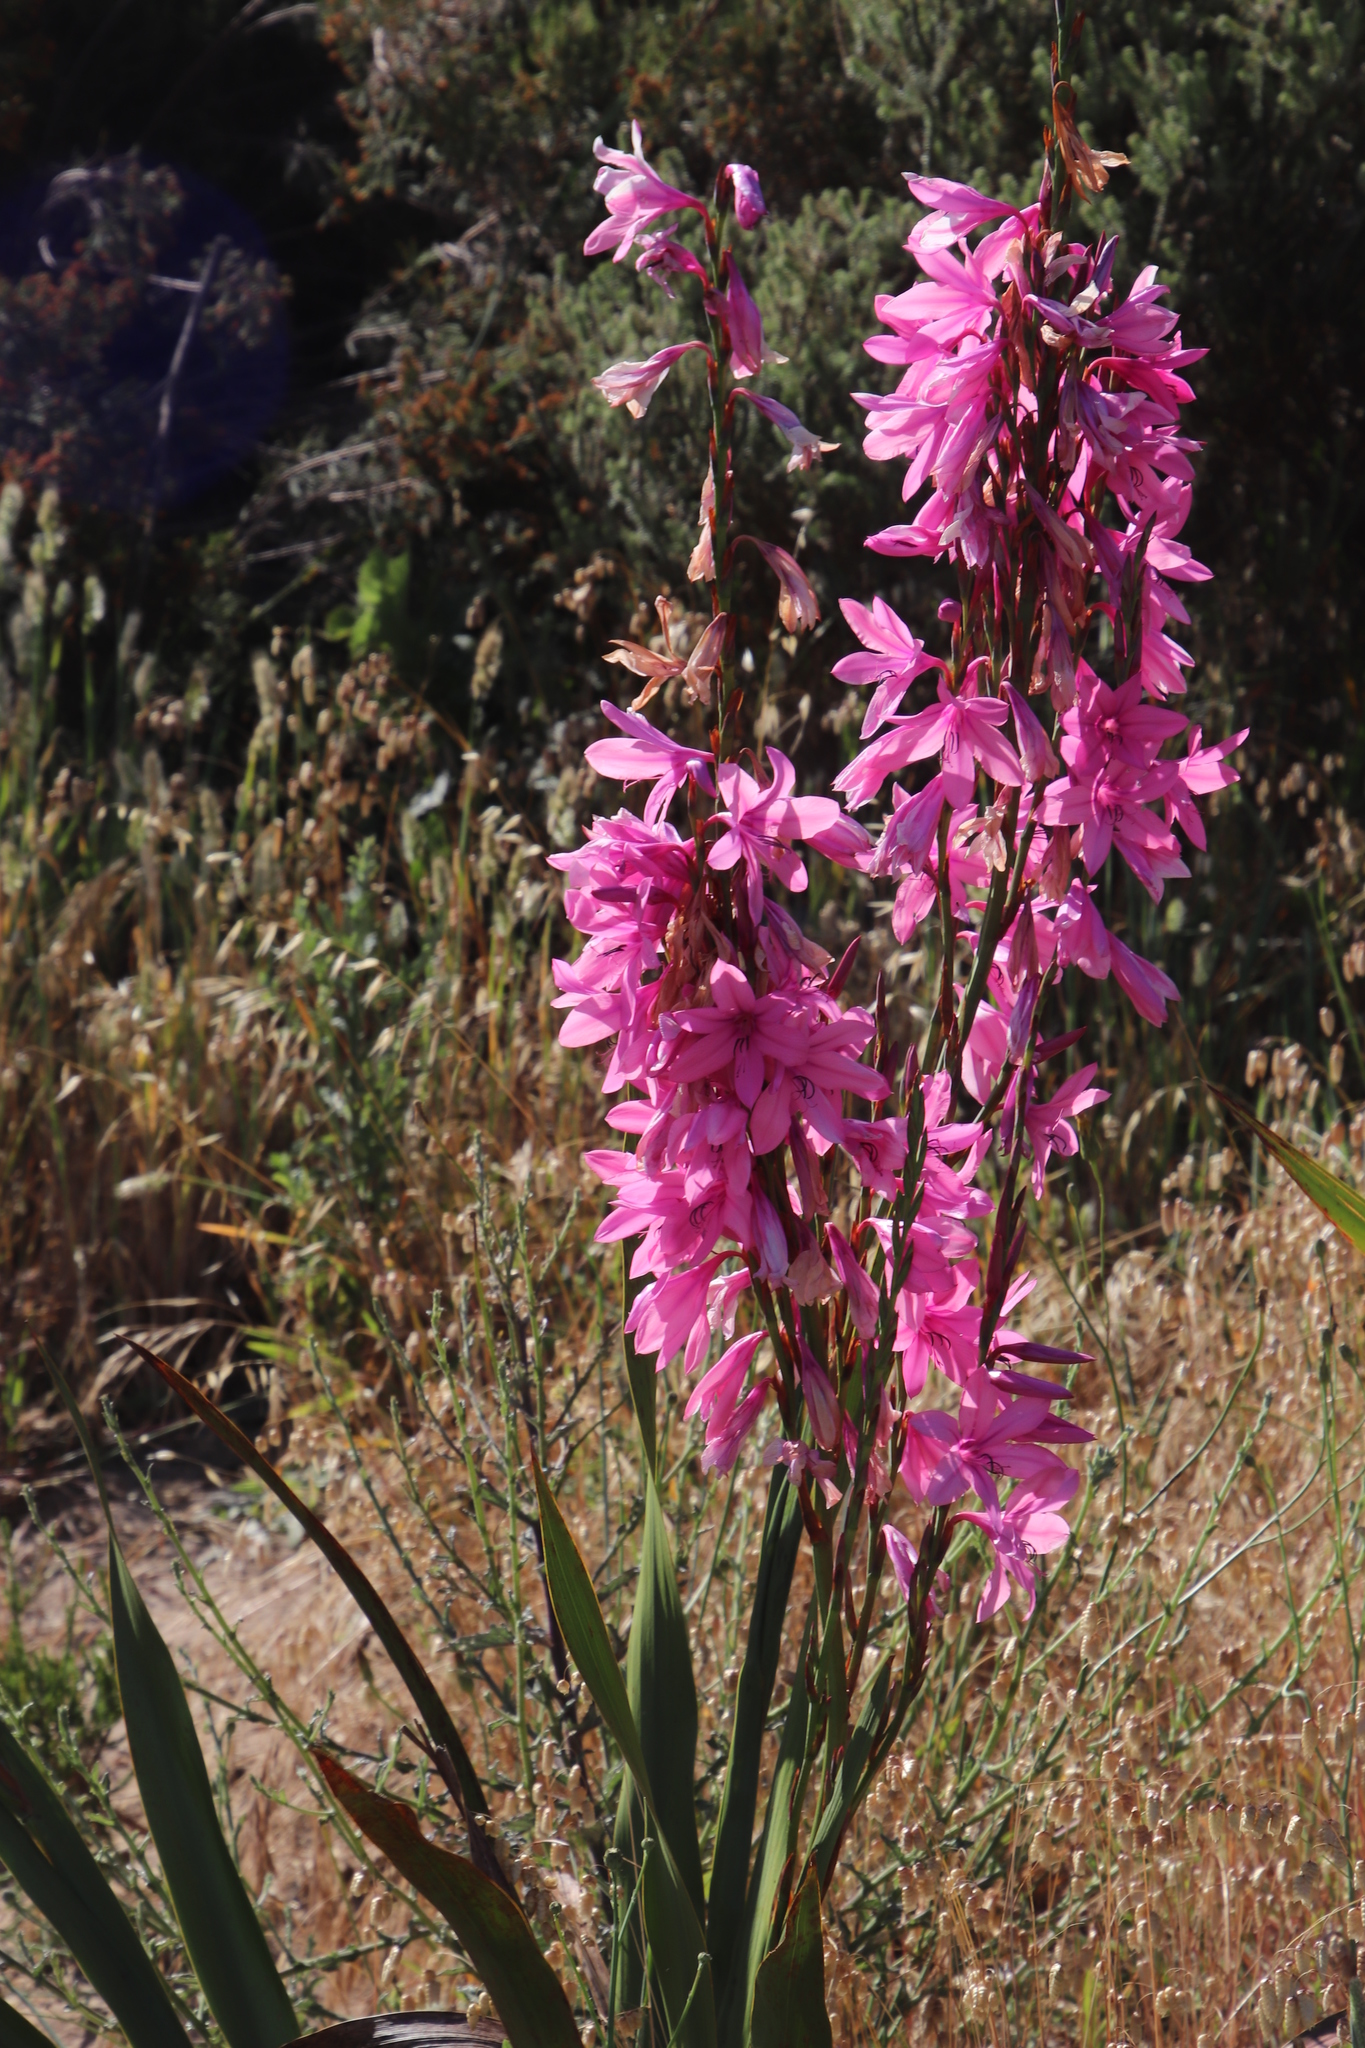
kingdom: Plantae
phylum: Tracheophyta
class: Liliopsida
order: Asparagales
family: Iridaceae
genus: Watsonia
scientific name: Watsonia borbonica
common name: Bugle-lily
